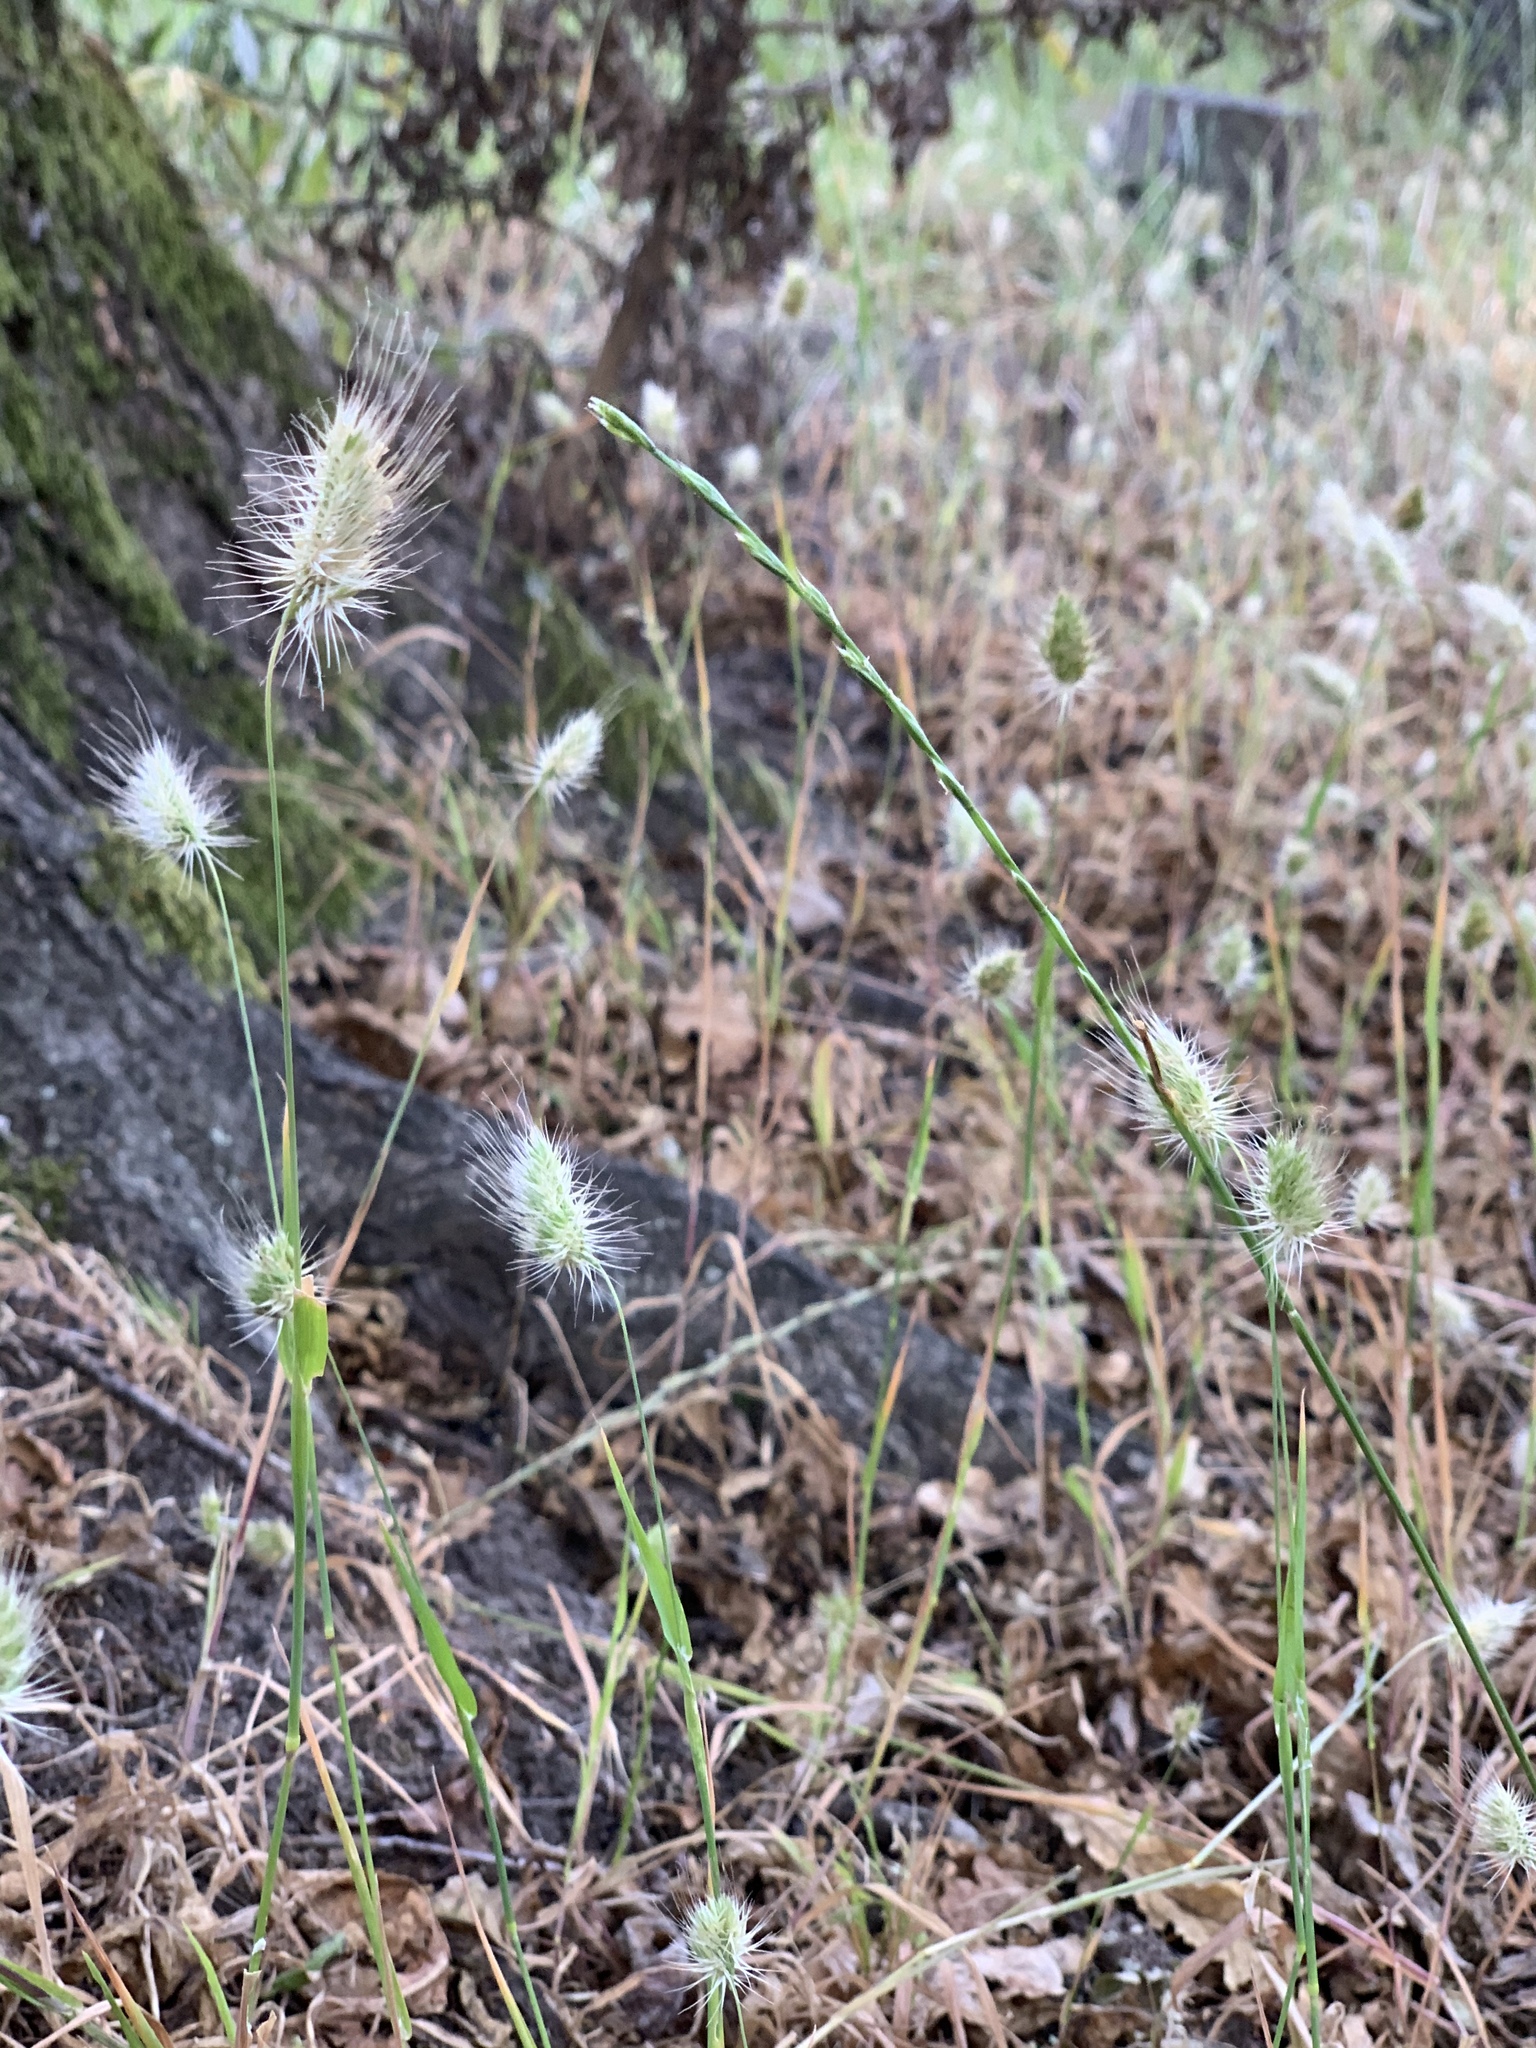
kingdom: Plantae
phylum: Tracheophyta
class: Liliopsida
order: Poales
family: Poaceae
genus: Cynosurus
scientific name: Cynosurus echinatus
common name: Rough dog's-tail
